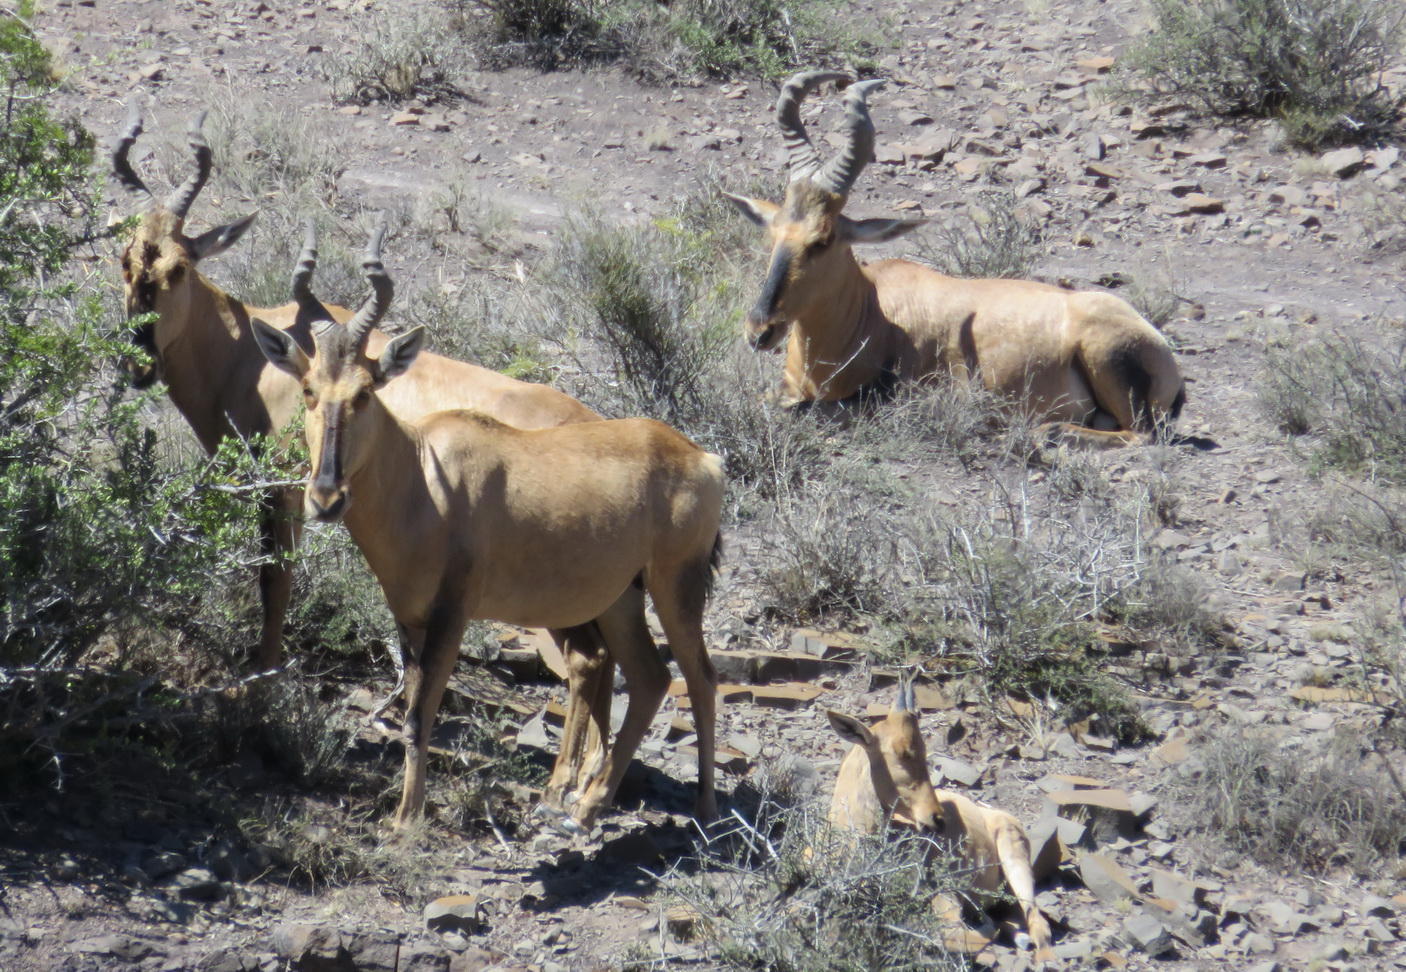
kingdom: Animalia
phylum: Chordata
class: Mammalia
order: Artiodactyla
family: Bovidae
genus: Alcelaphus
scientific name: Alcelaphus caama
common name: Red hartebeest
